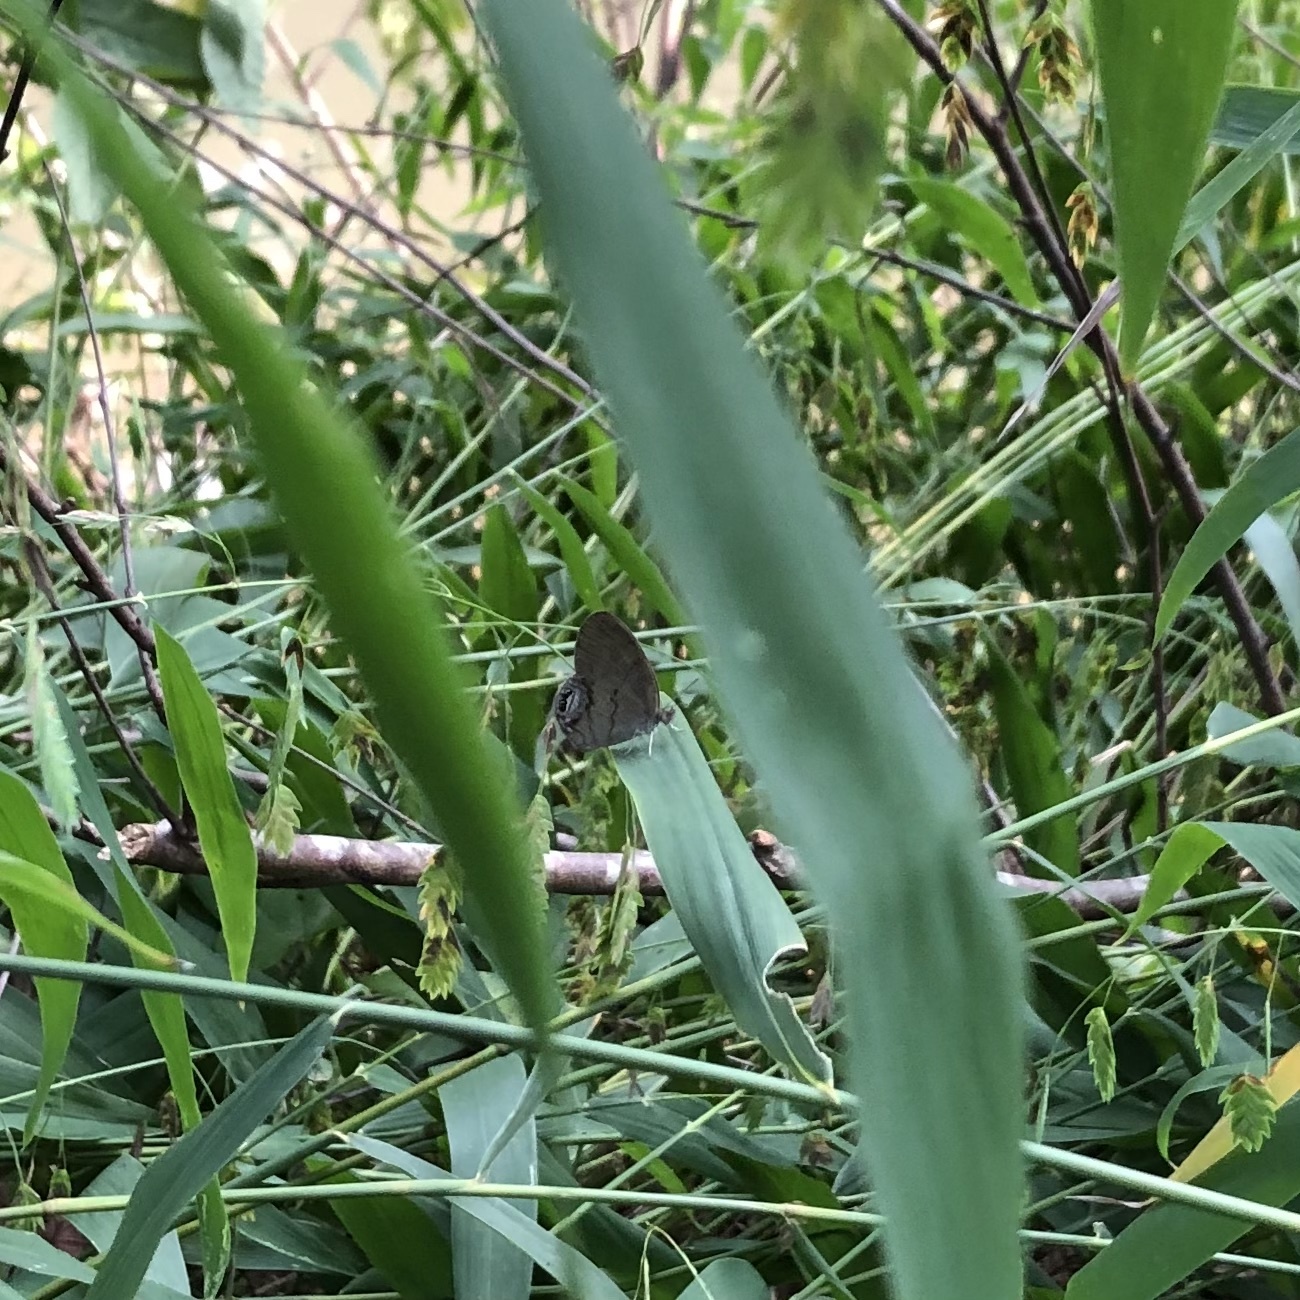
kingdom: Animalia
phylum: Arthropoda
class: Insecta
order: Lepidoptera
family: Nymphalidae
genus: Euptychia
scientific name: Euptychia cornelius
